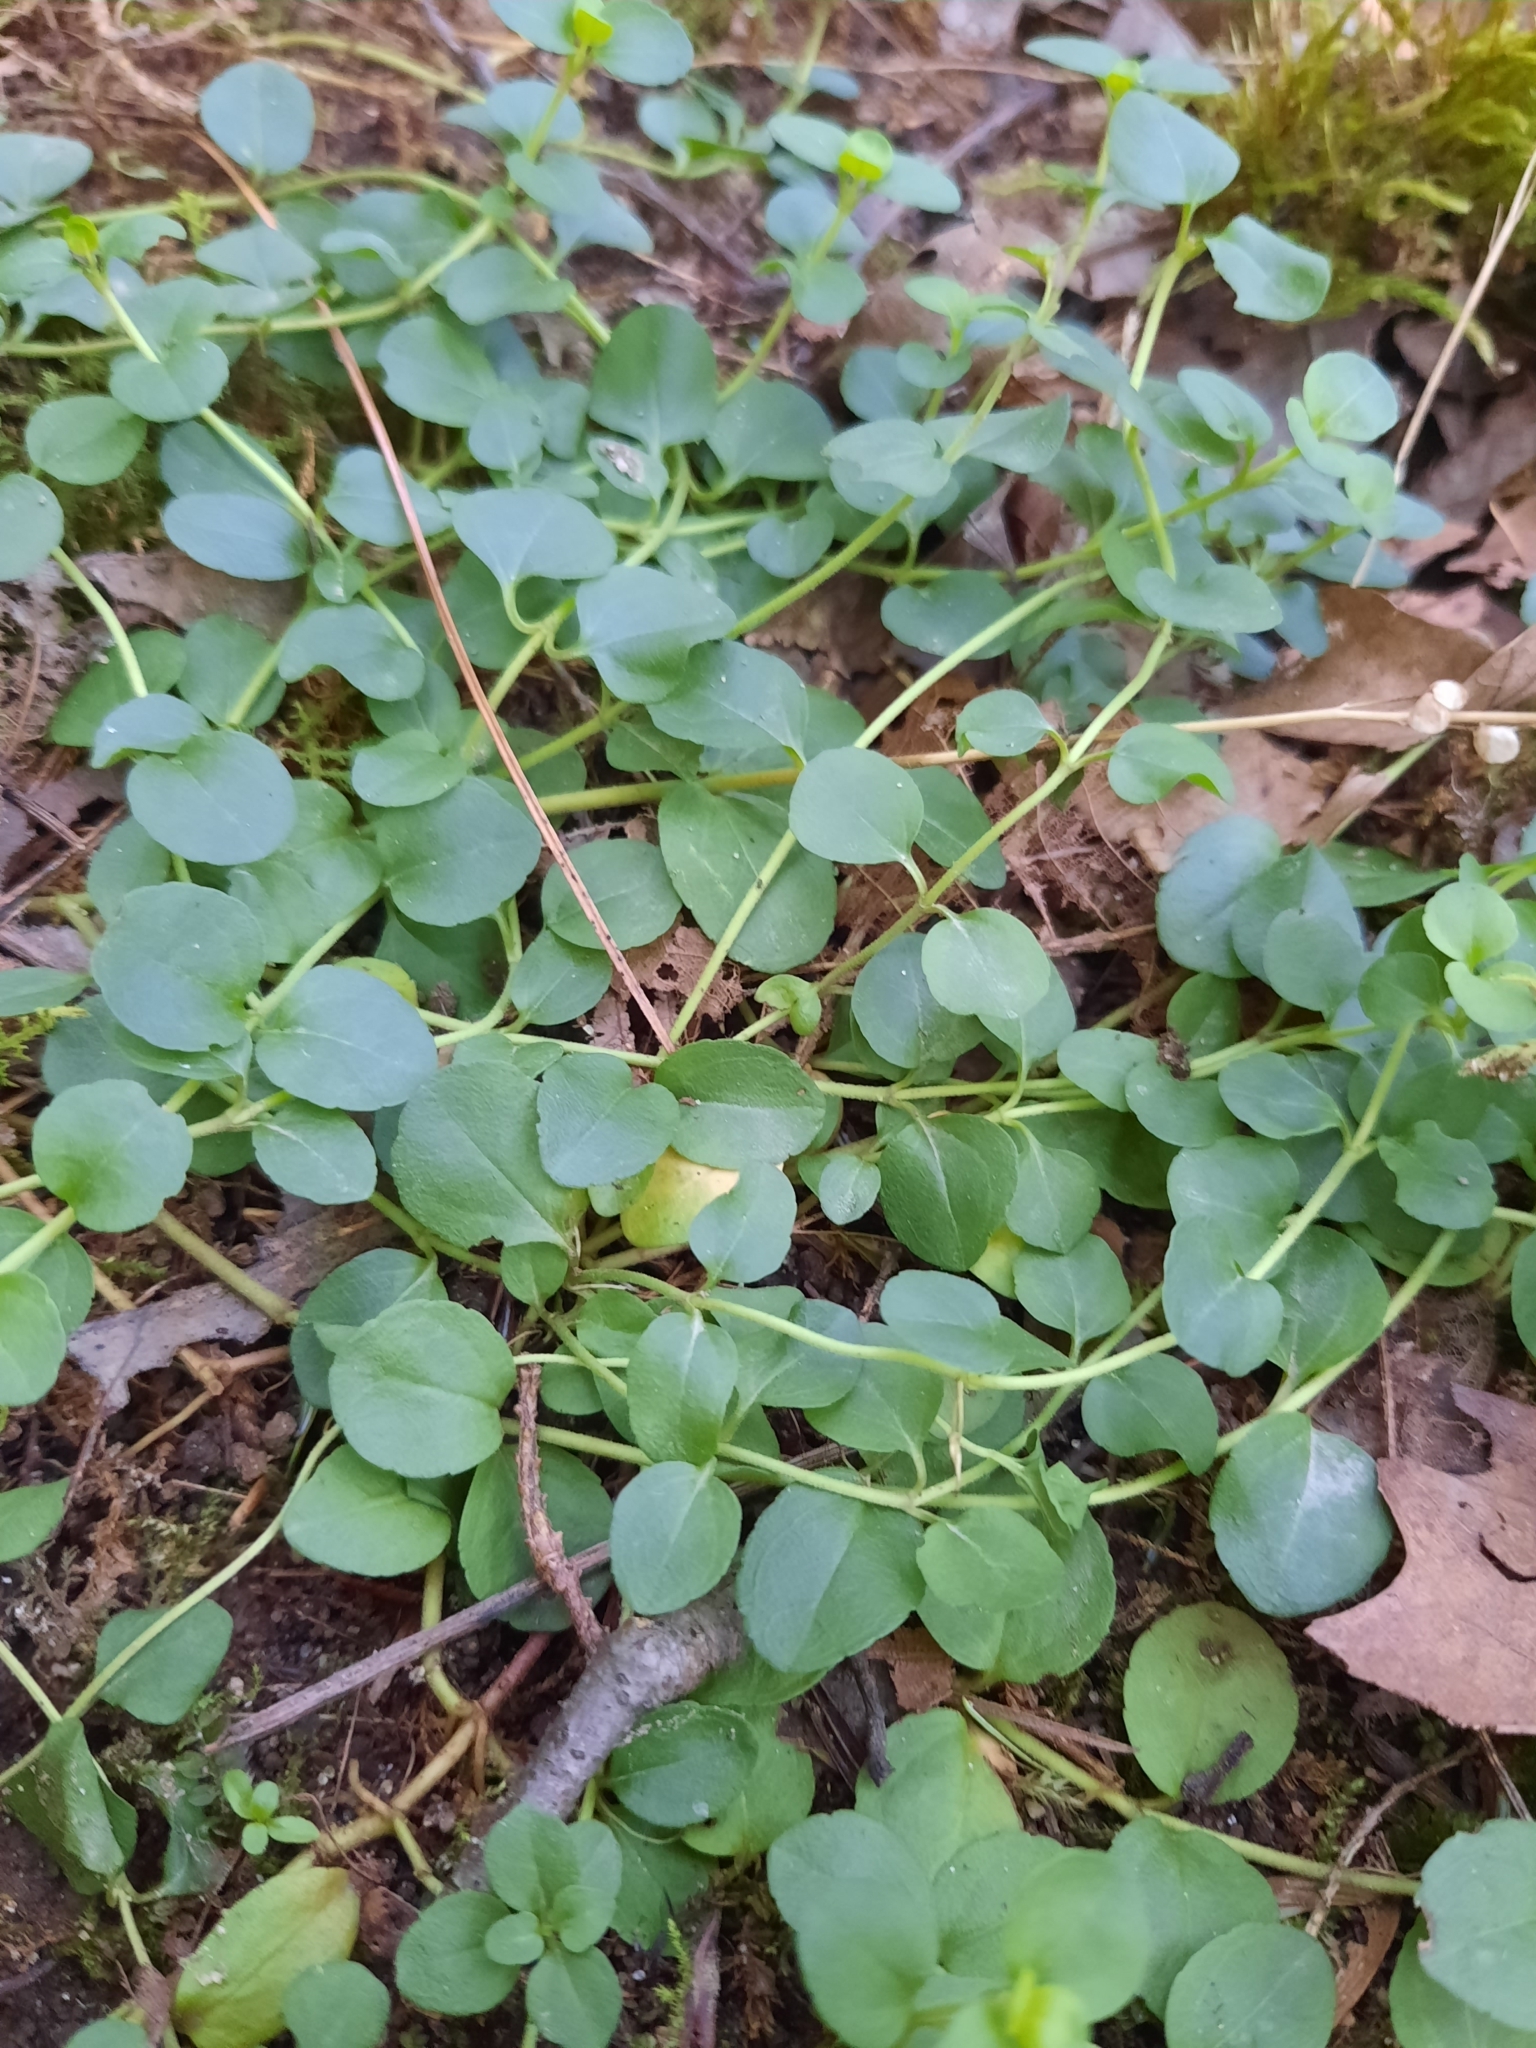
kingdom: Plantae
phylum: Tracheophyta
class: Magnoliopsida
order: Lamiales
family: Plantaginaceae
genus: Veronica
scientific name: Veronica serpyllifolia
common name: Thyme-leaved speedwell
